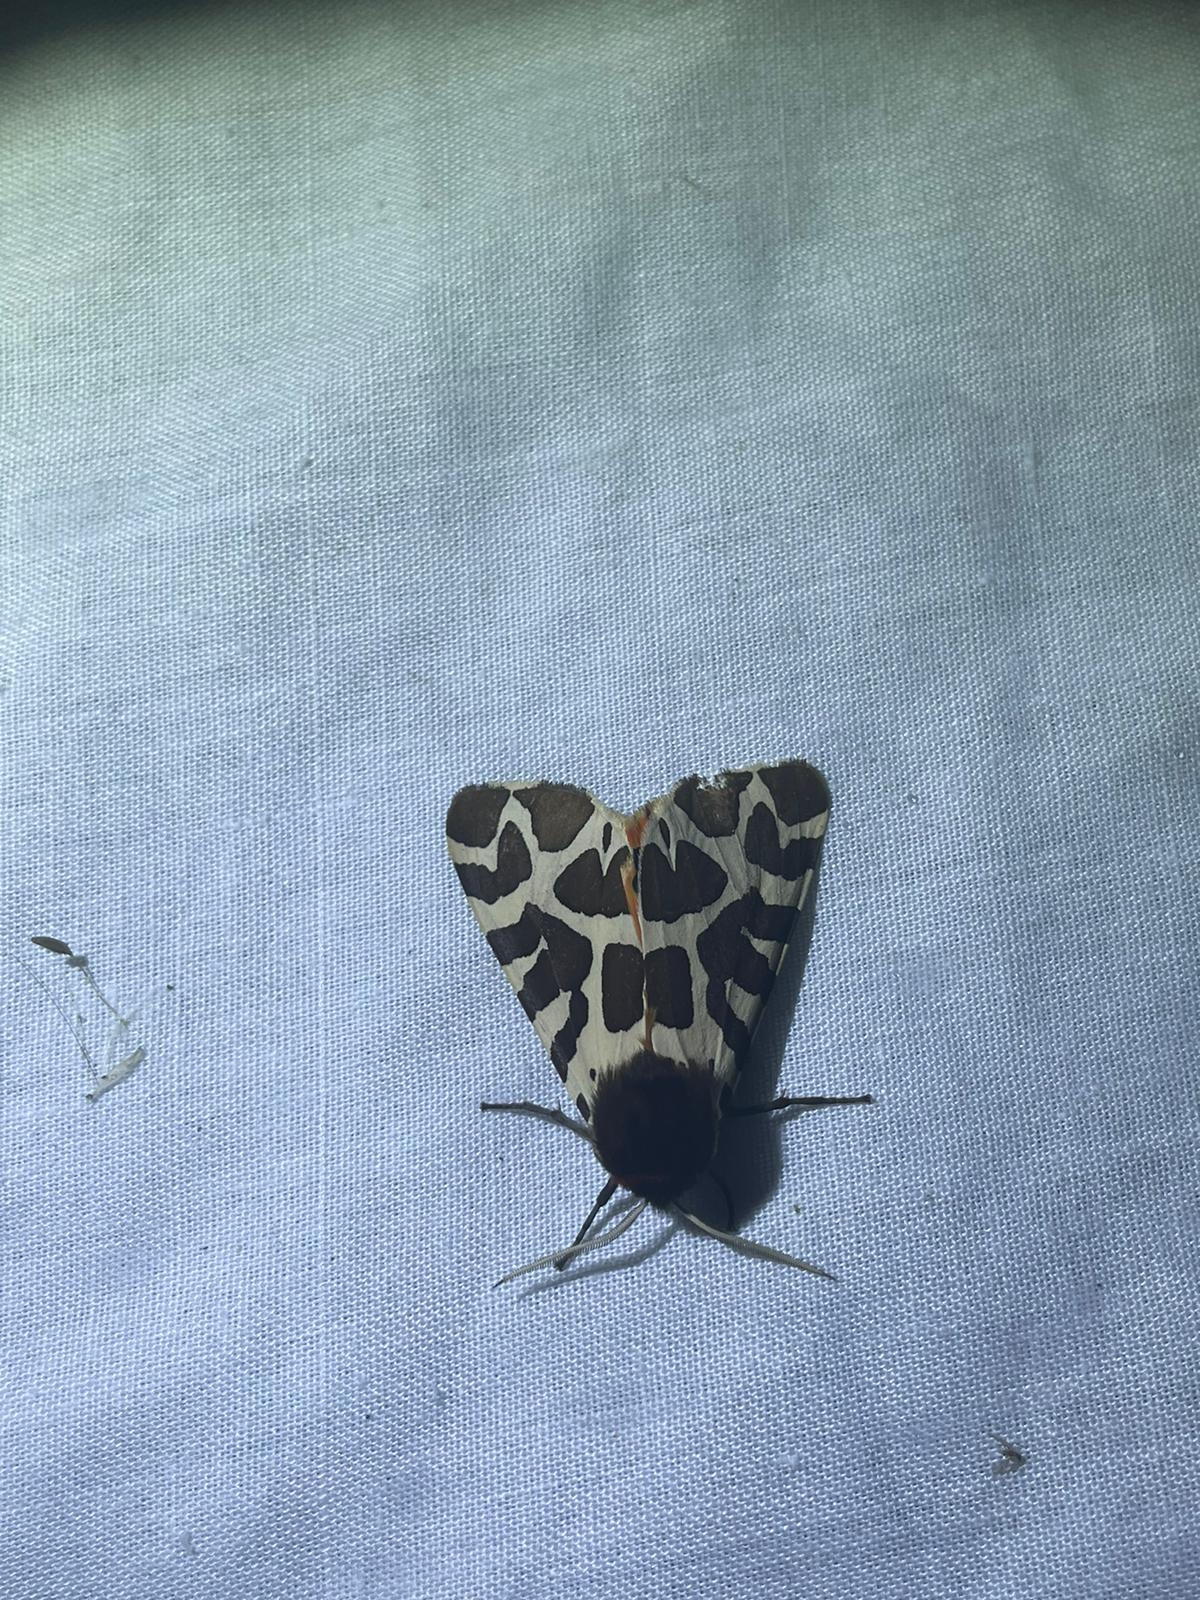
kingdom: Animalia
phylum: Arthropoda
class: Insecta
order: Lepidoptera
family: Erebidae
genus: Arctia
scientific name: Arctia caja
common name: Garden tiger
